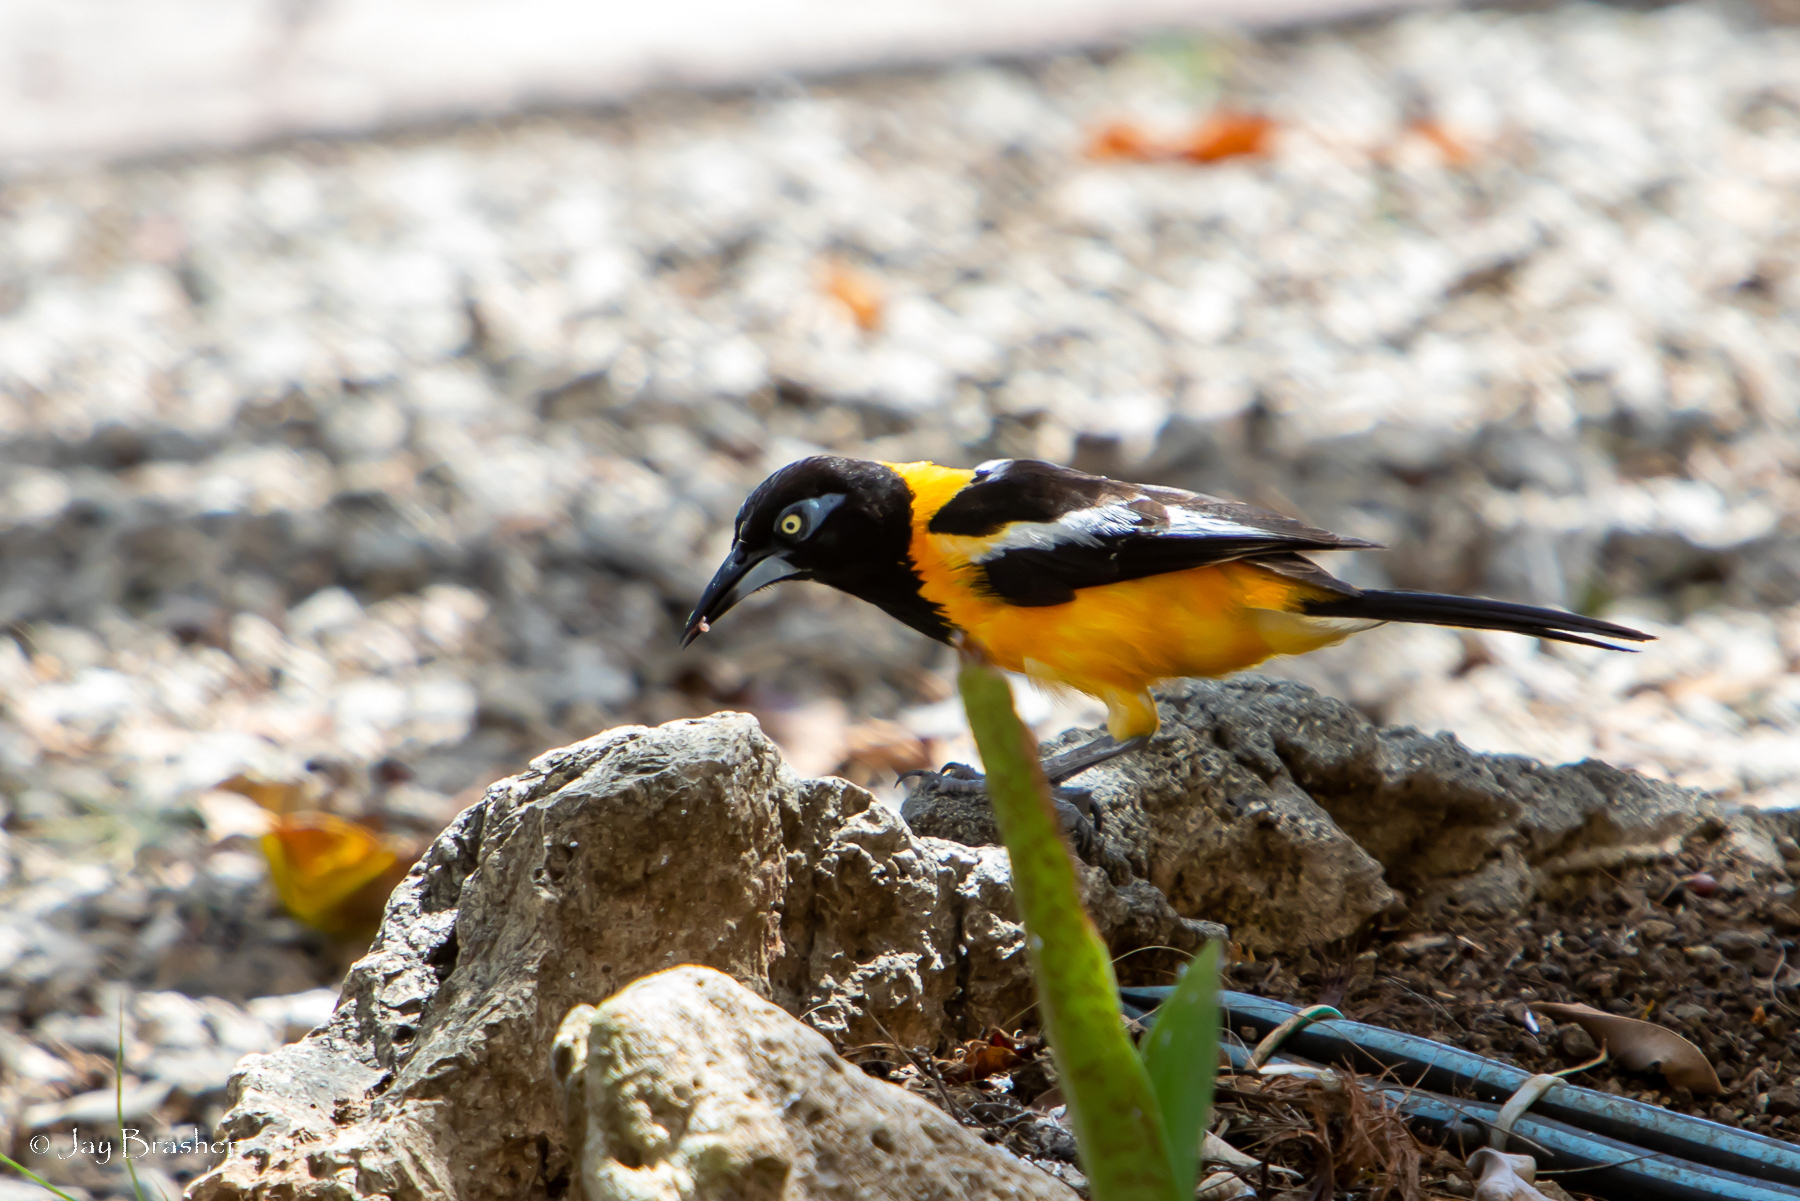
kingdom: Animalia
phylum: Chordata
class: Aves
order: Passeriformes
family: Icteridae
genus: Icterus
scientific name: Icterus icterus
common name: Venezuelan troupial
